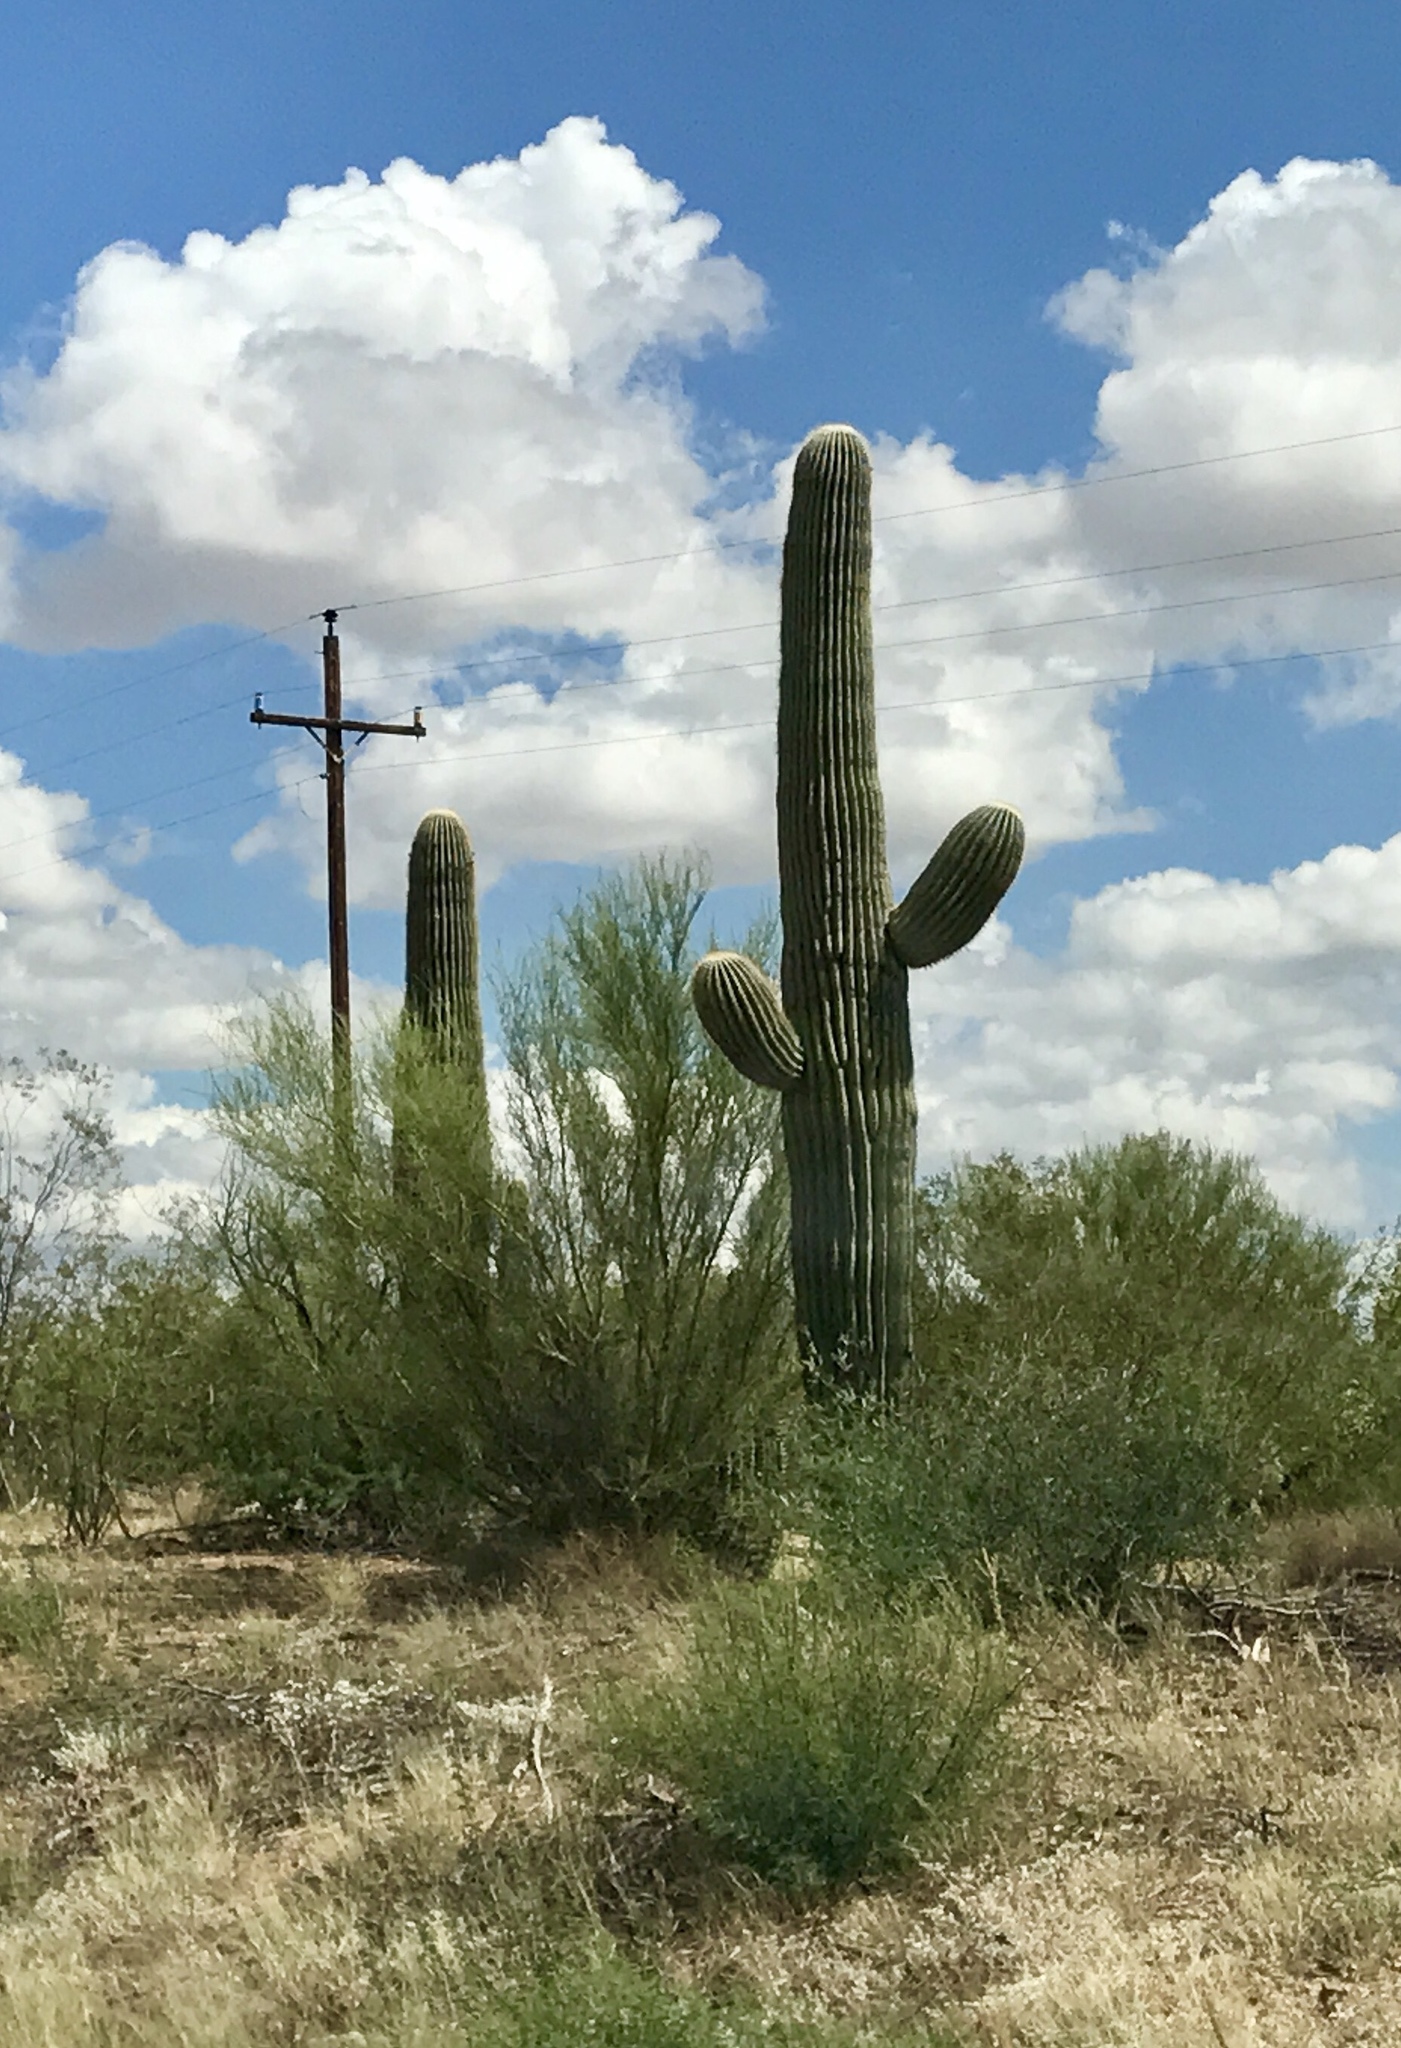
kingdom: Plantae
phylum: Tracheophyta
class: Magnoliopsida
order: Caryophyllales
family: Cactaceae
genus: Carnegiea
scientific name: Carnegiea gigantea
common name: Saguaro
